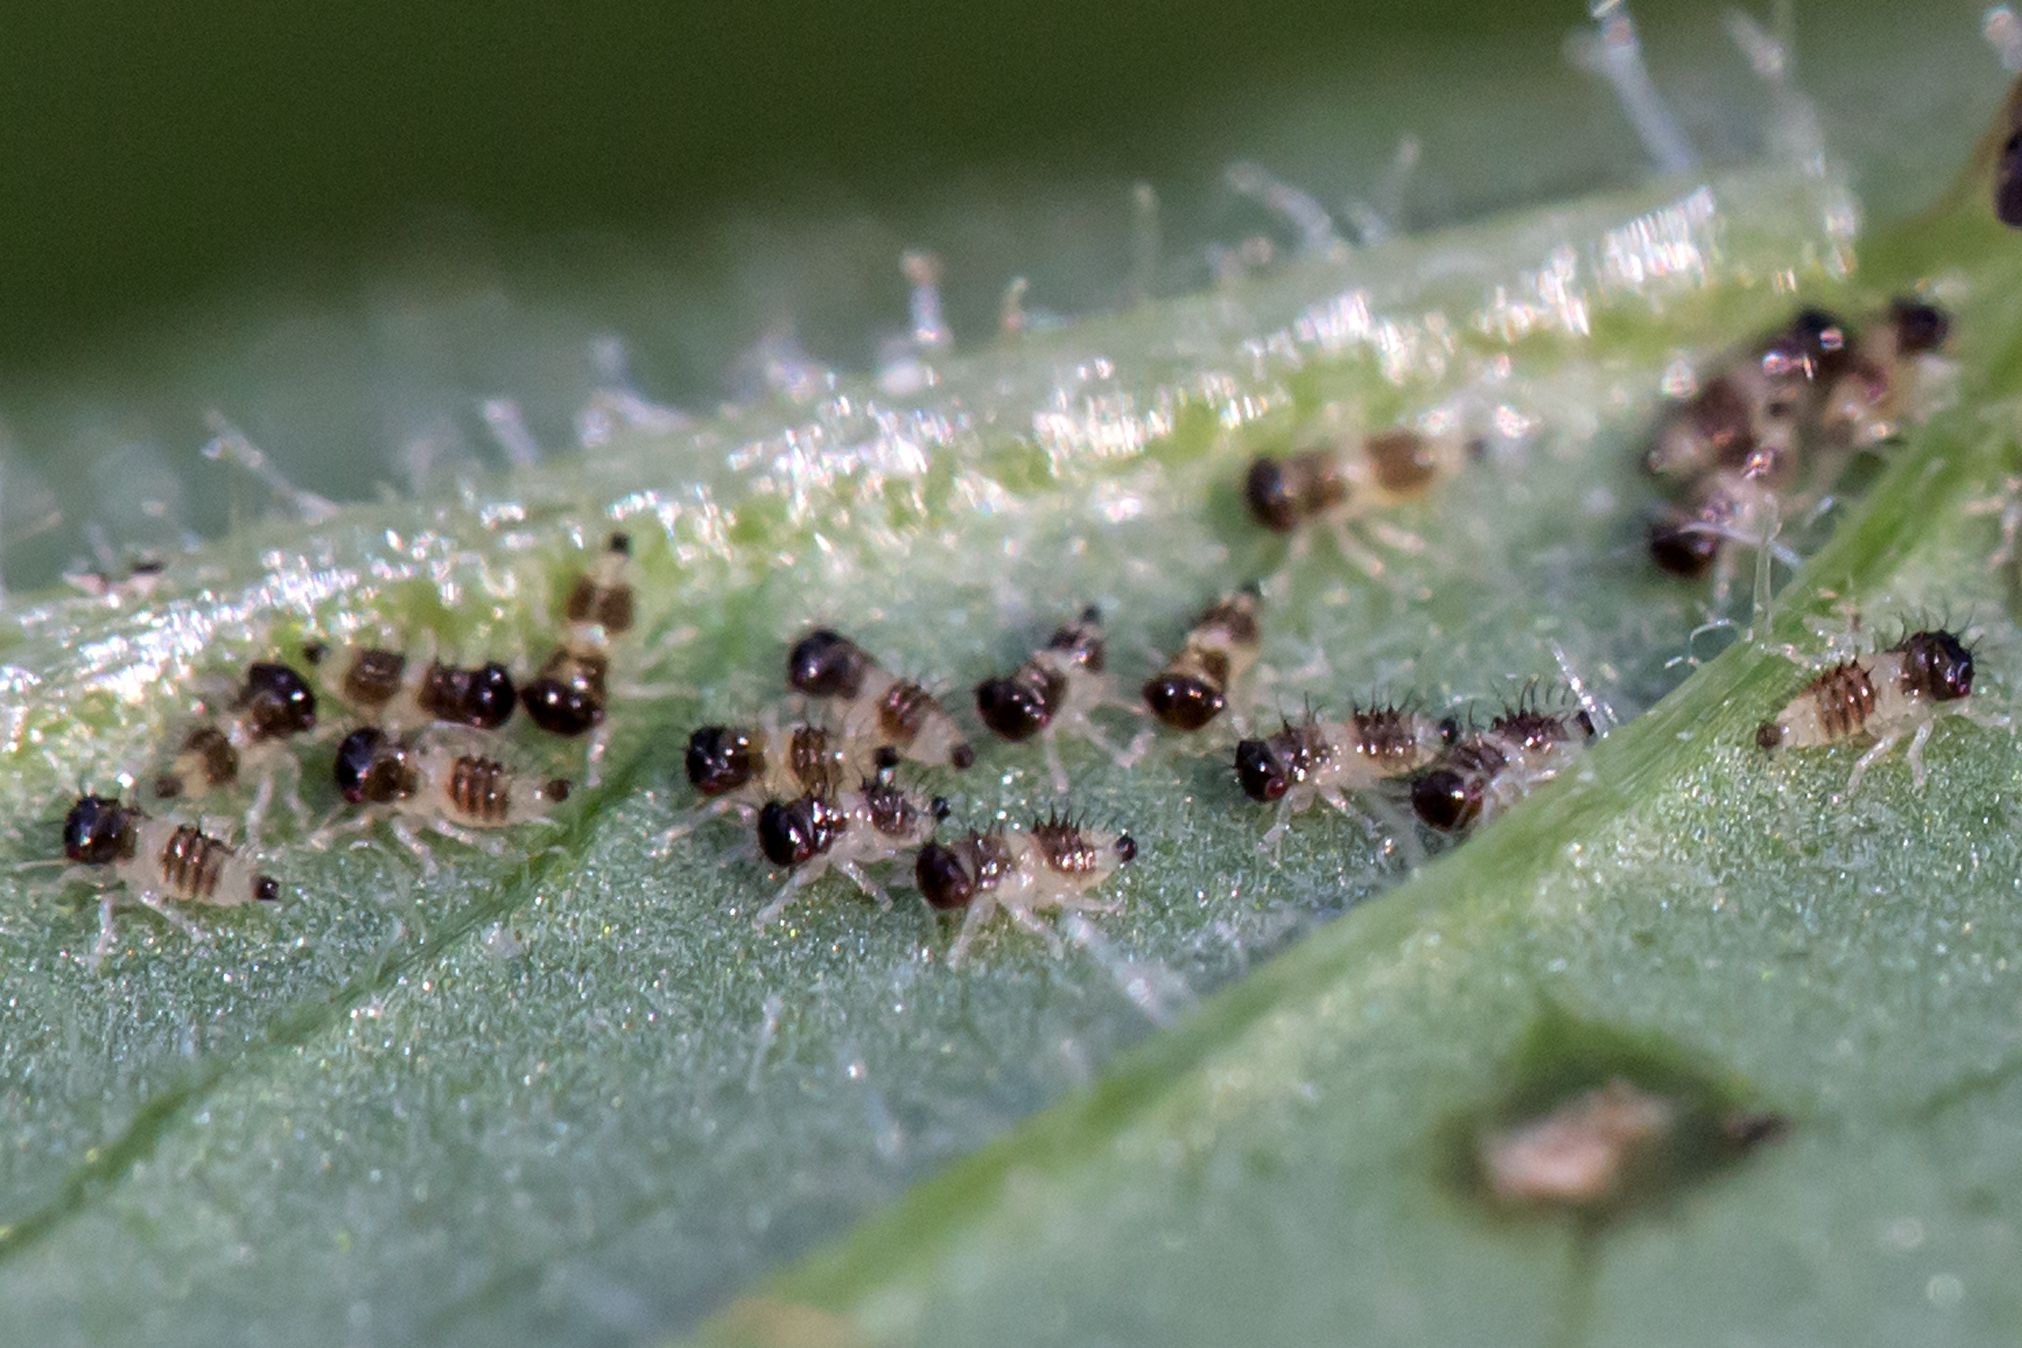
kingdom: Animalia
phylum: Arthropoda
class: Insecta
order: Hemiptera
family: Membracidae
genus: Entylia
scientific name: Entylia carinata
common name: Keeled treehopper
